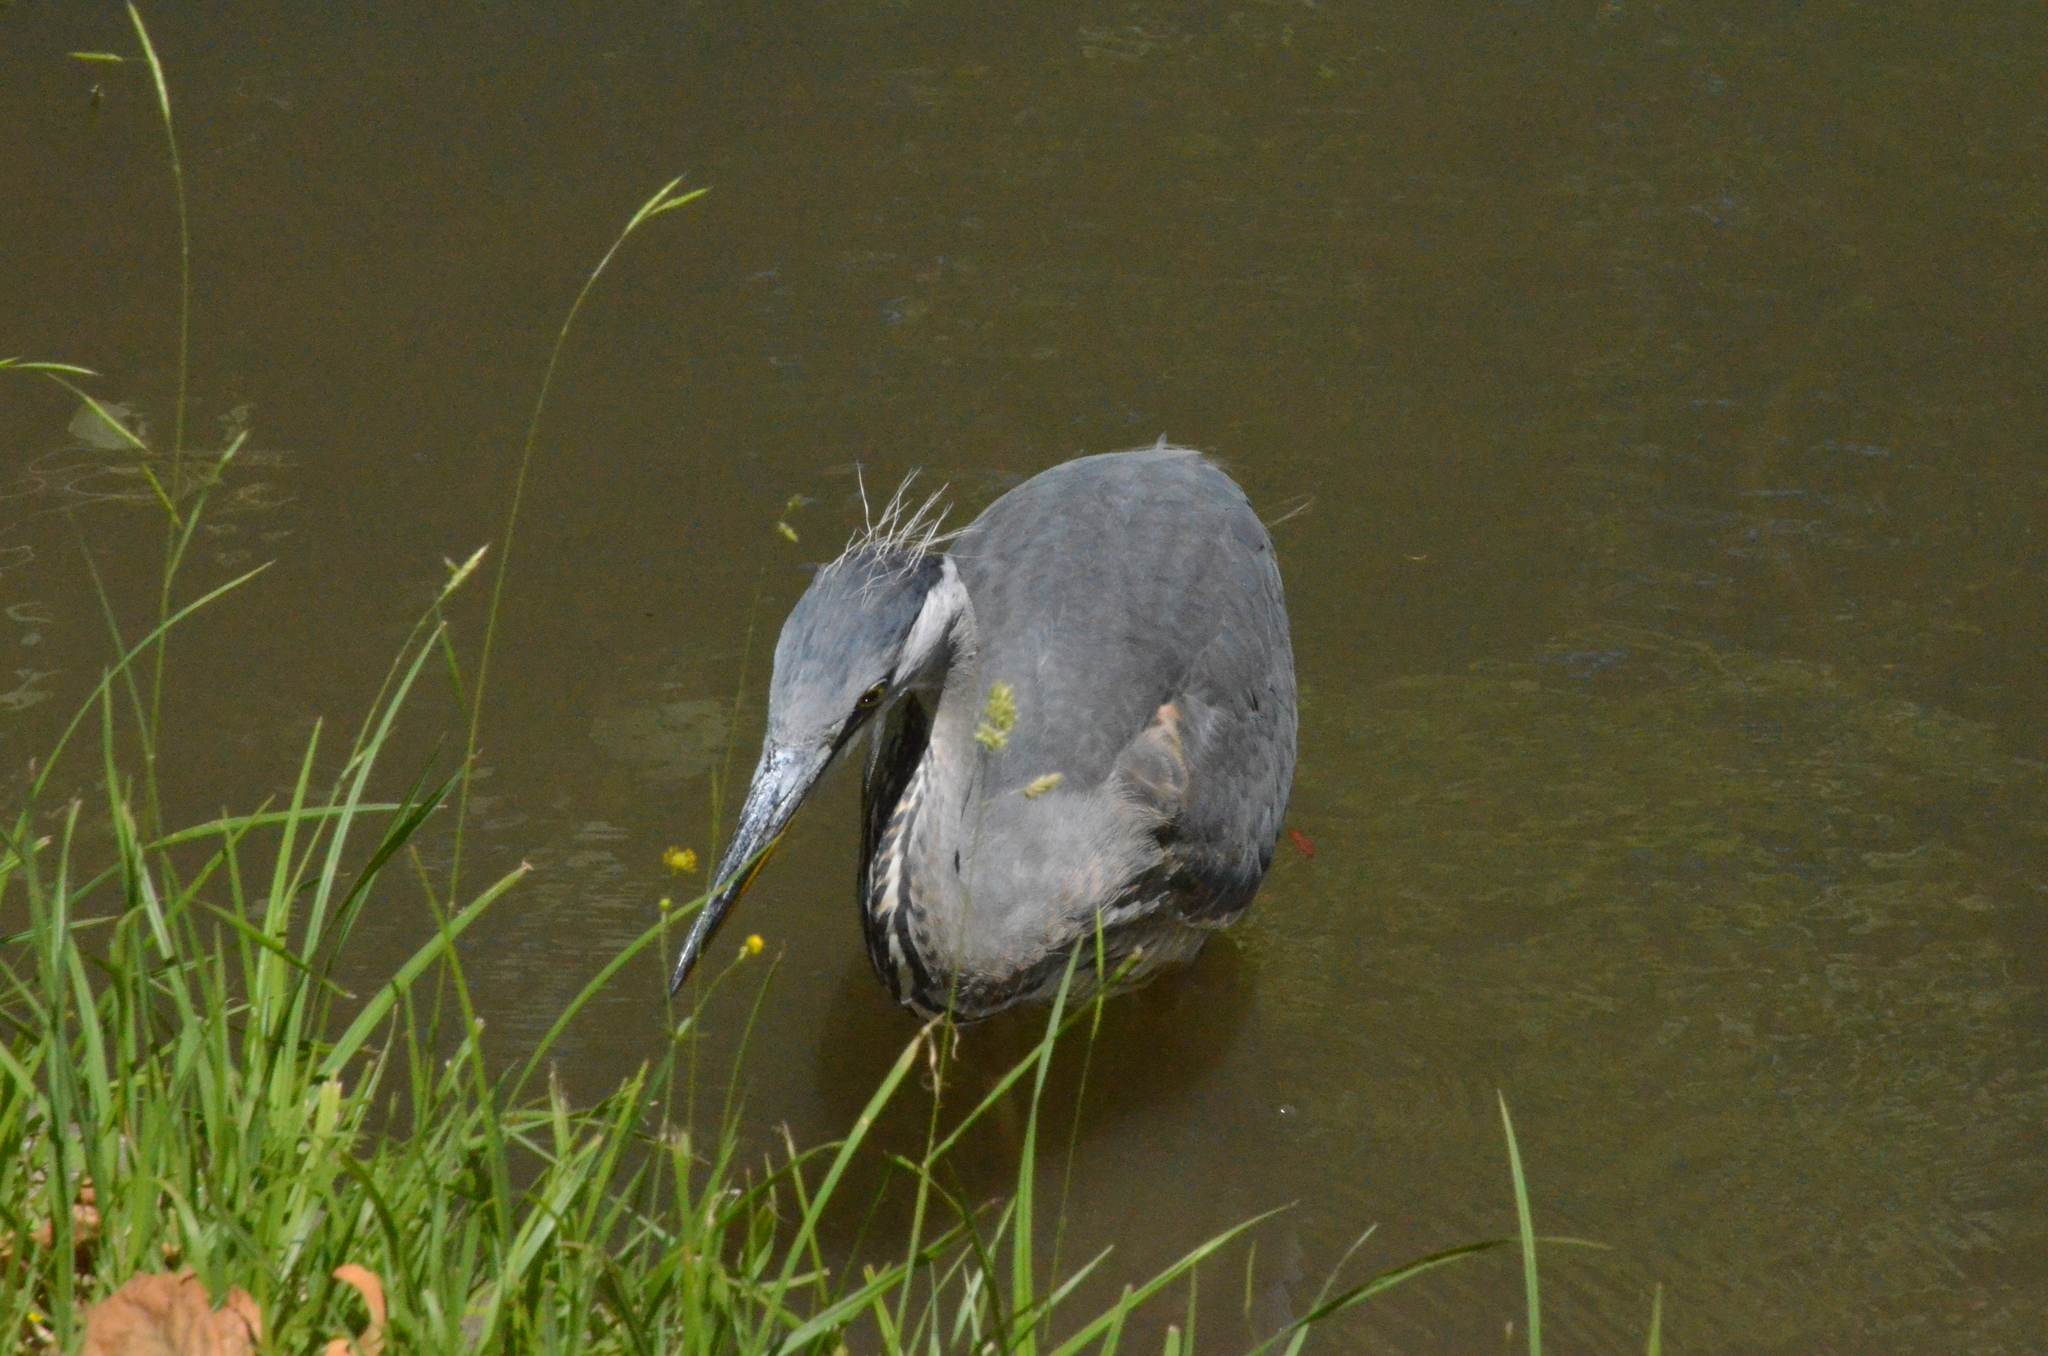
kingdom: Animalia
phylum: Chordata
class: Aves
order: Pelecaniformes
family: Ardeidae
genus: Ardea
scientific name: Ardea cinerea
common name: Grey heron
